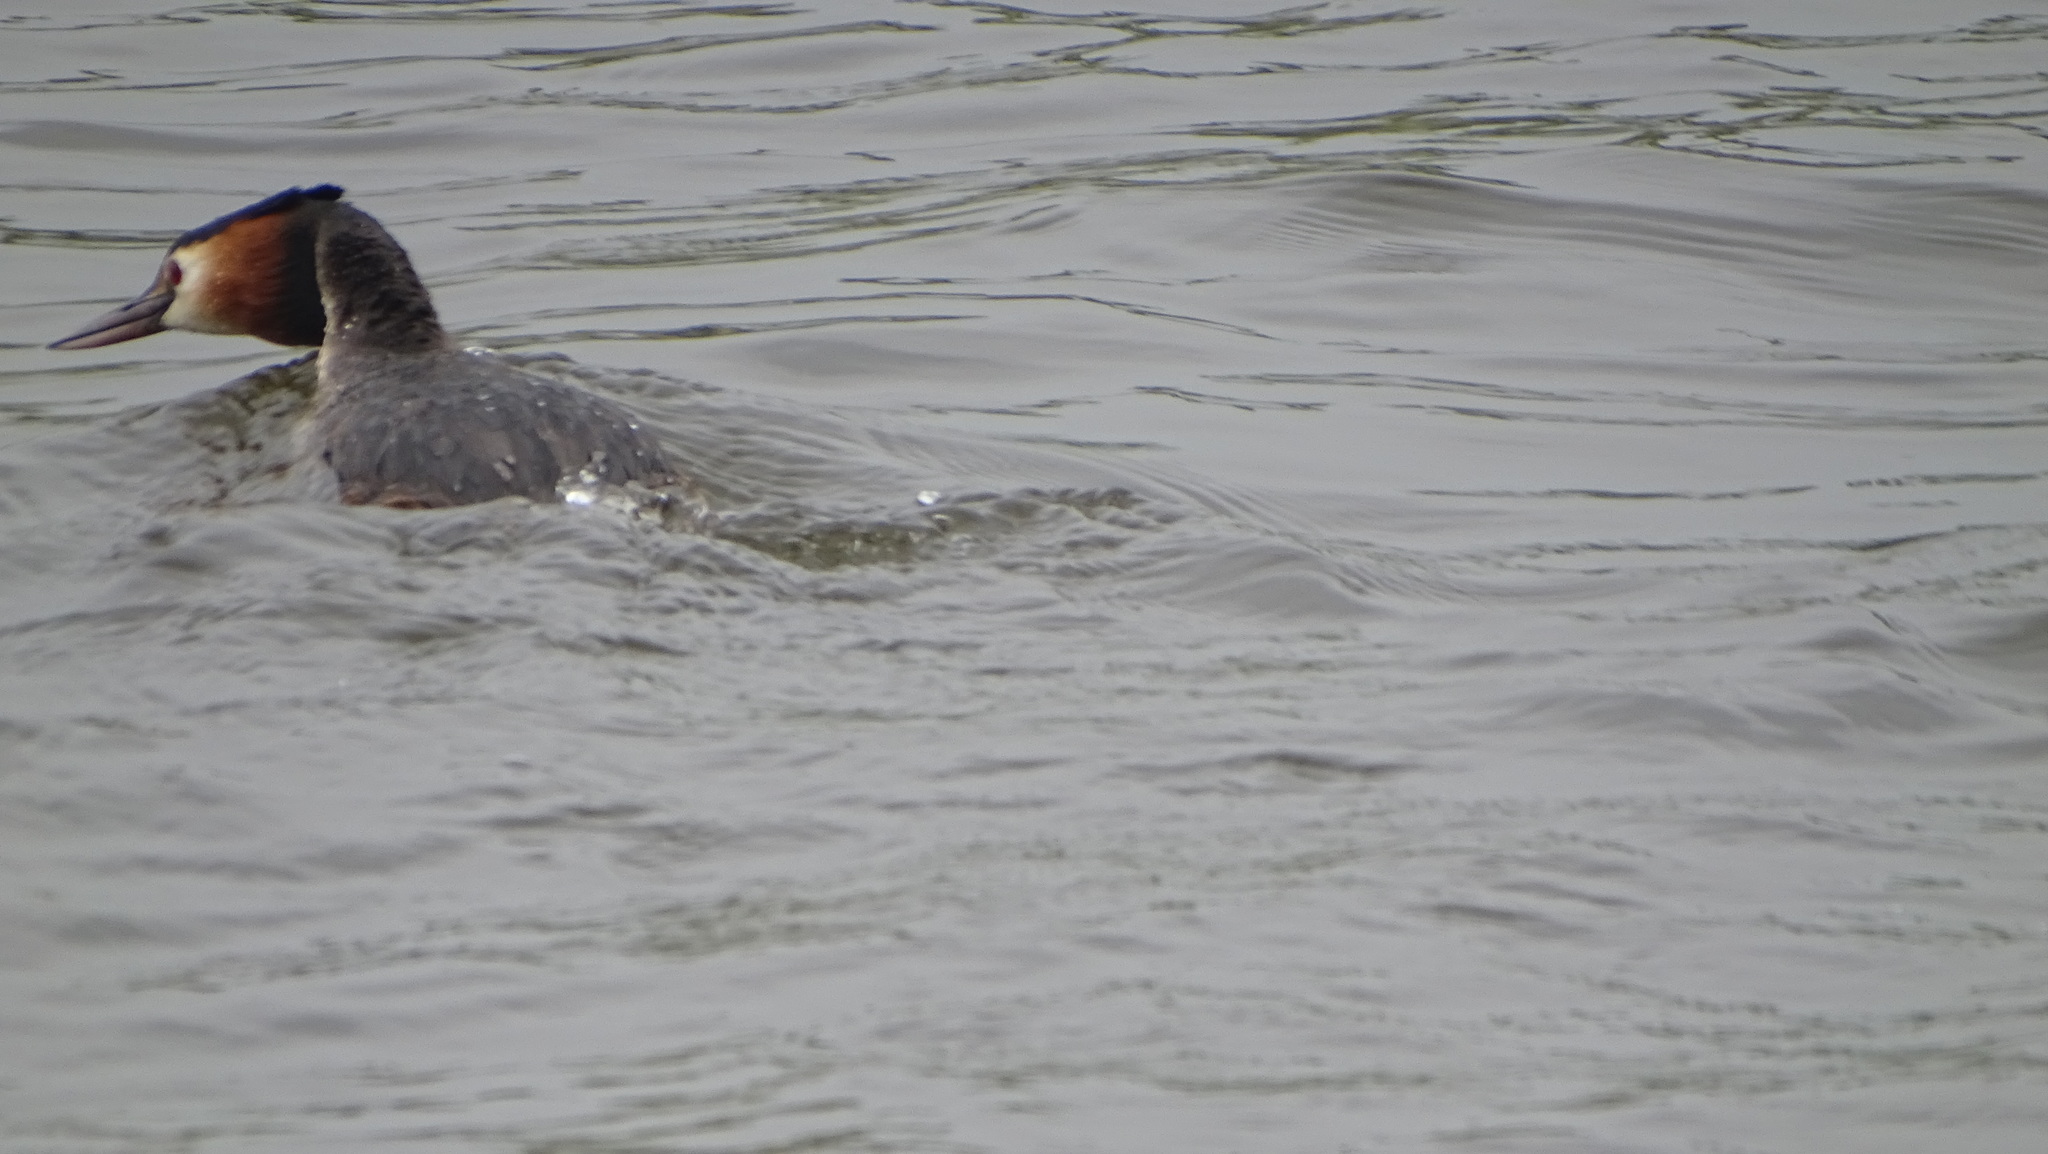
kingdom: Animalia
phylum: Chordata
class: Aves
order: Podicipediformes
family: Podicipedidae
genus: Podiceps
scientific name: Podiceps cristatus
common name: Great crested grebe
